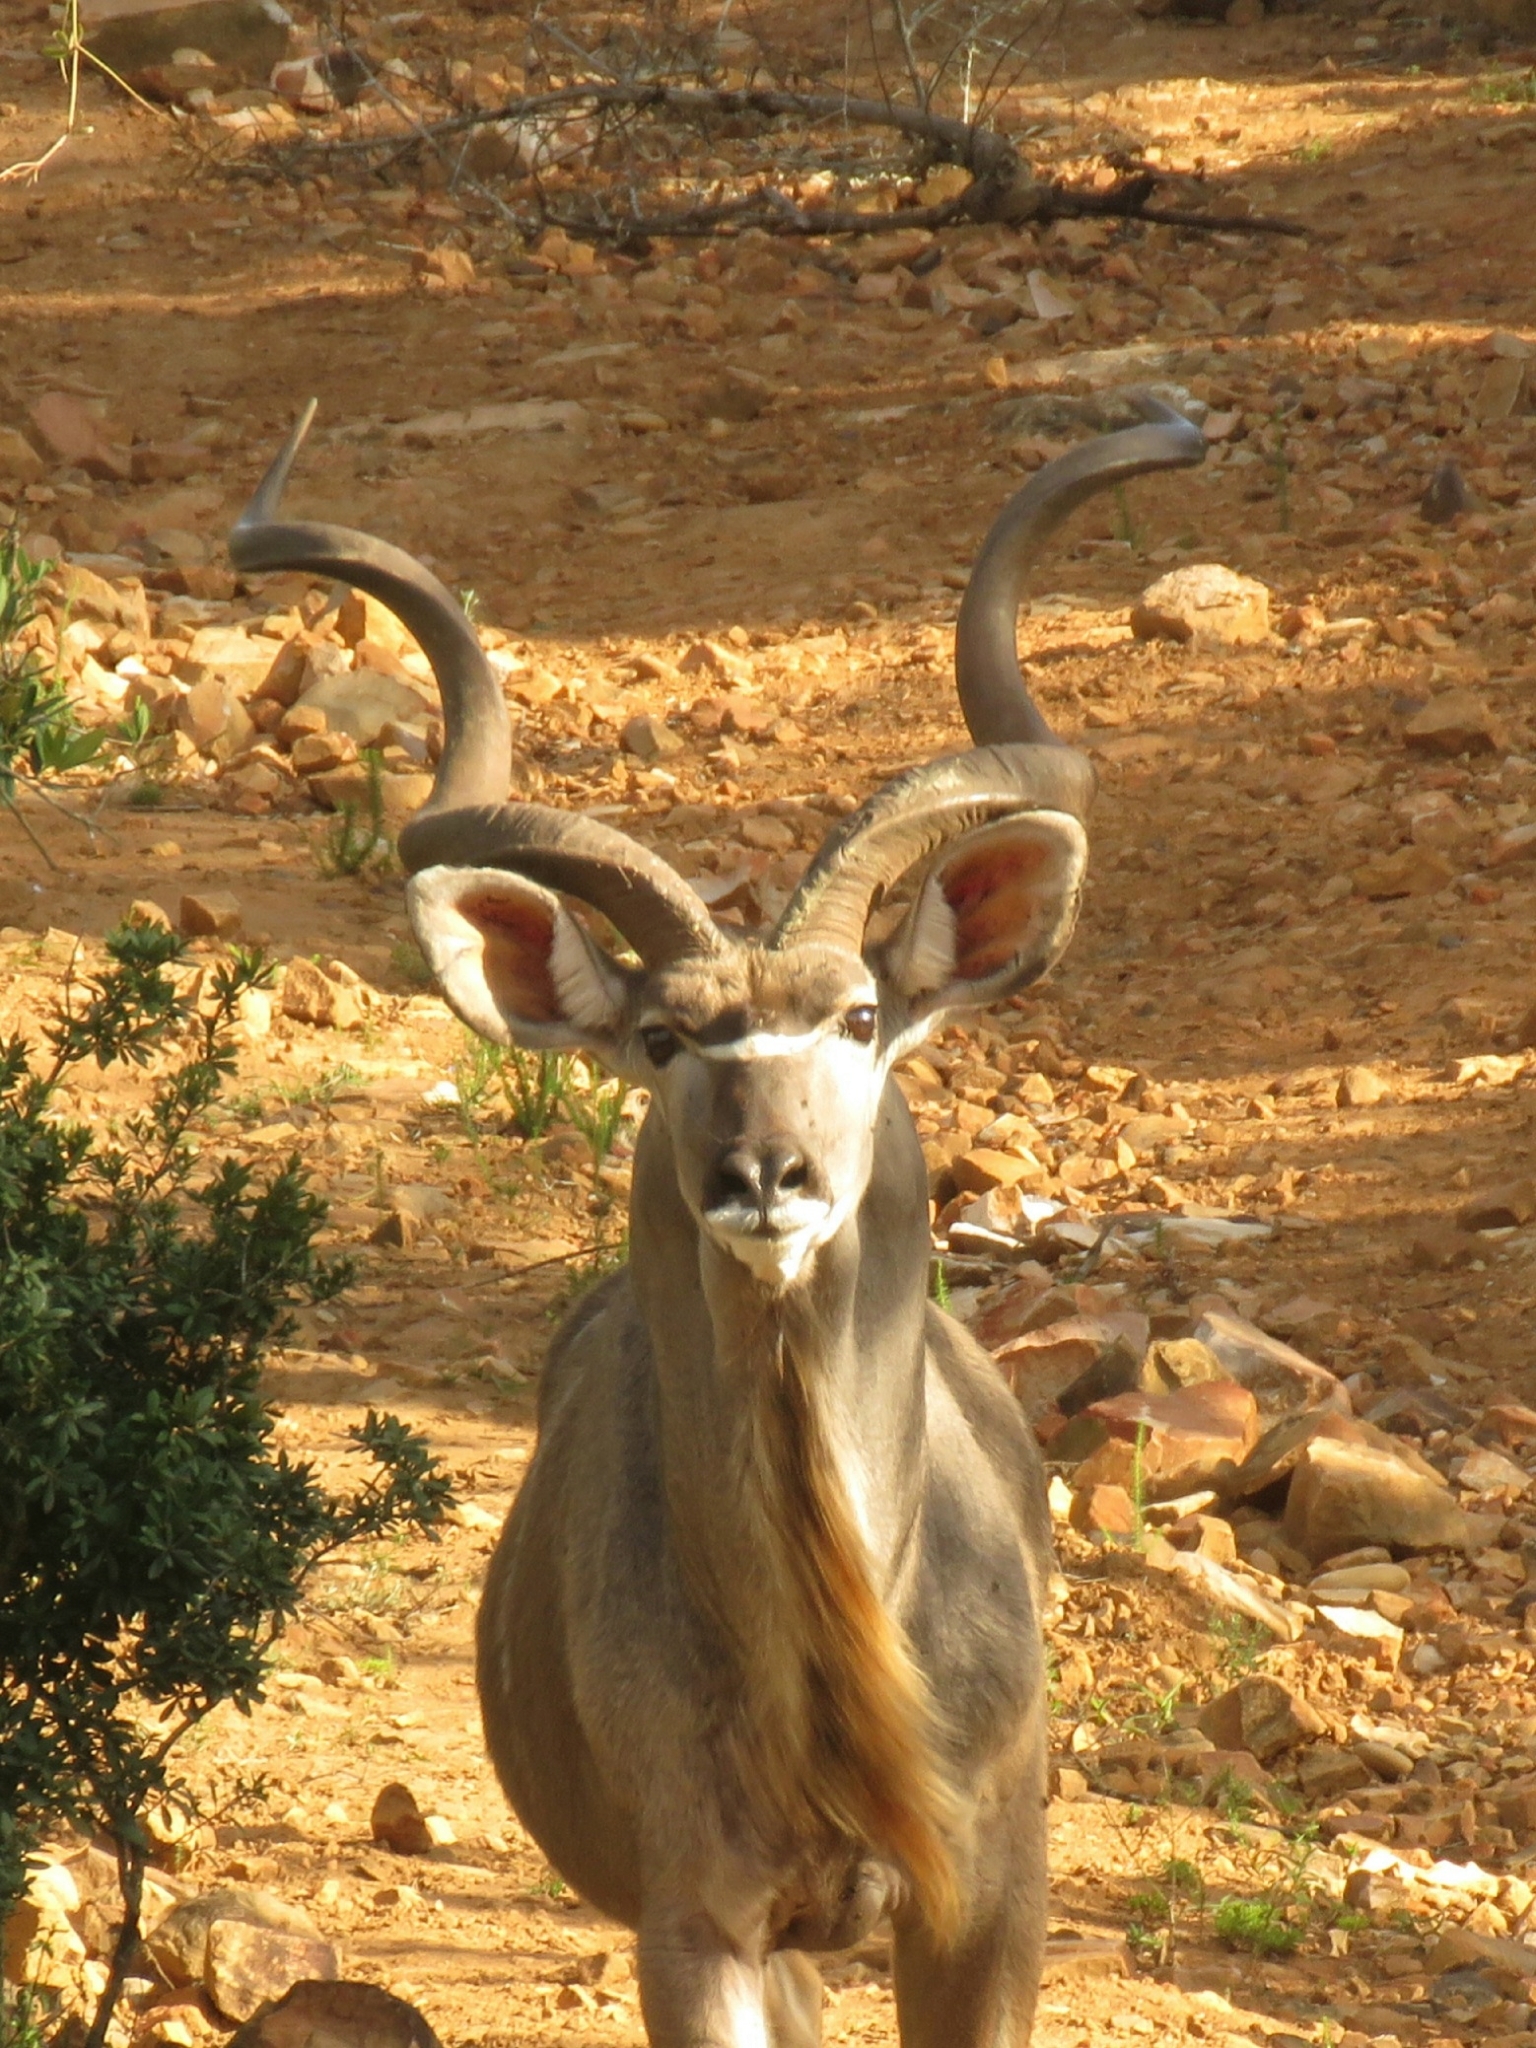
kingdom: Animalia
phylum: Chordata
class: Mammalia
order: Artiodactyla
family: Bovidae
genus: Tragelaphus
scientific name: Tragelaphus strepsiceros
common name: Greater kudu
